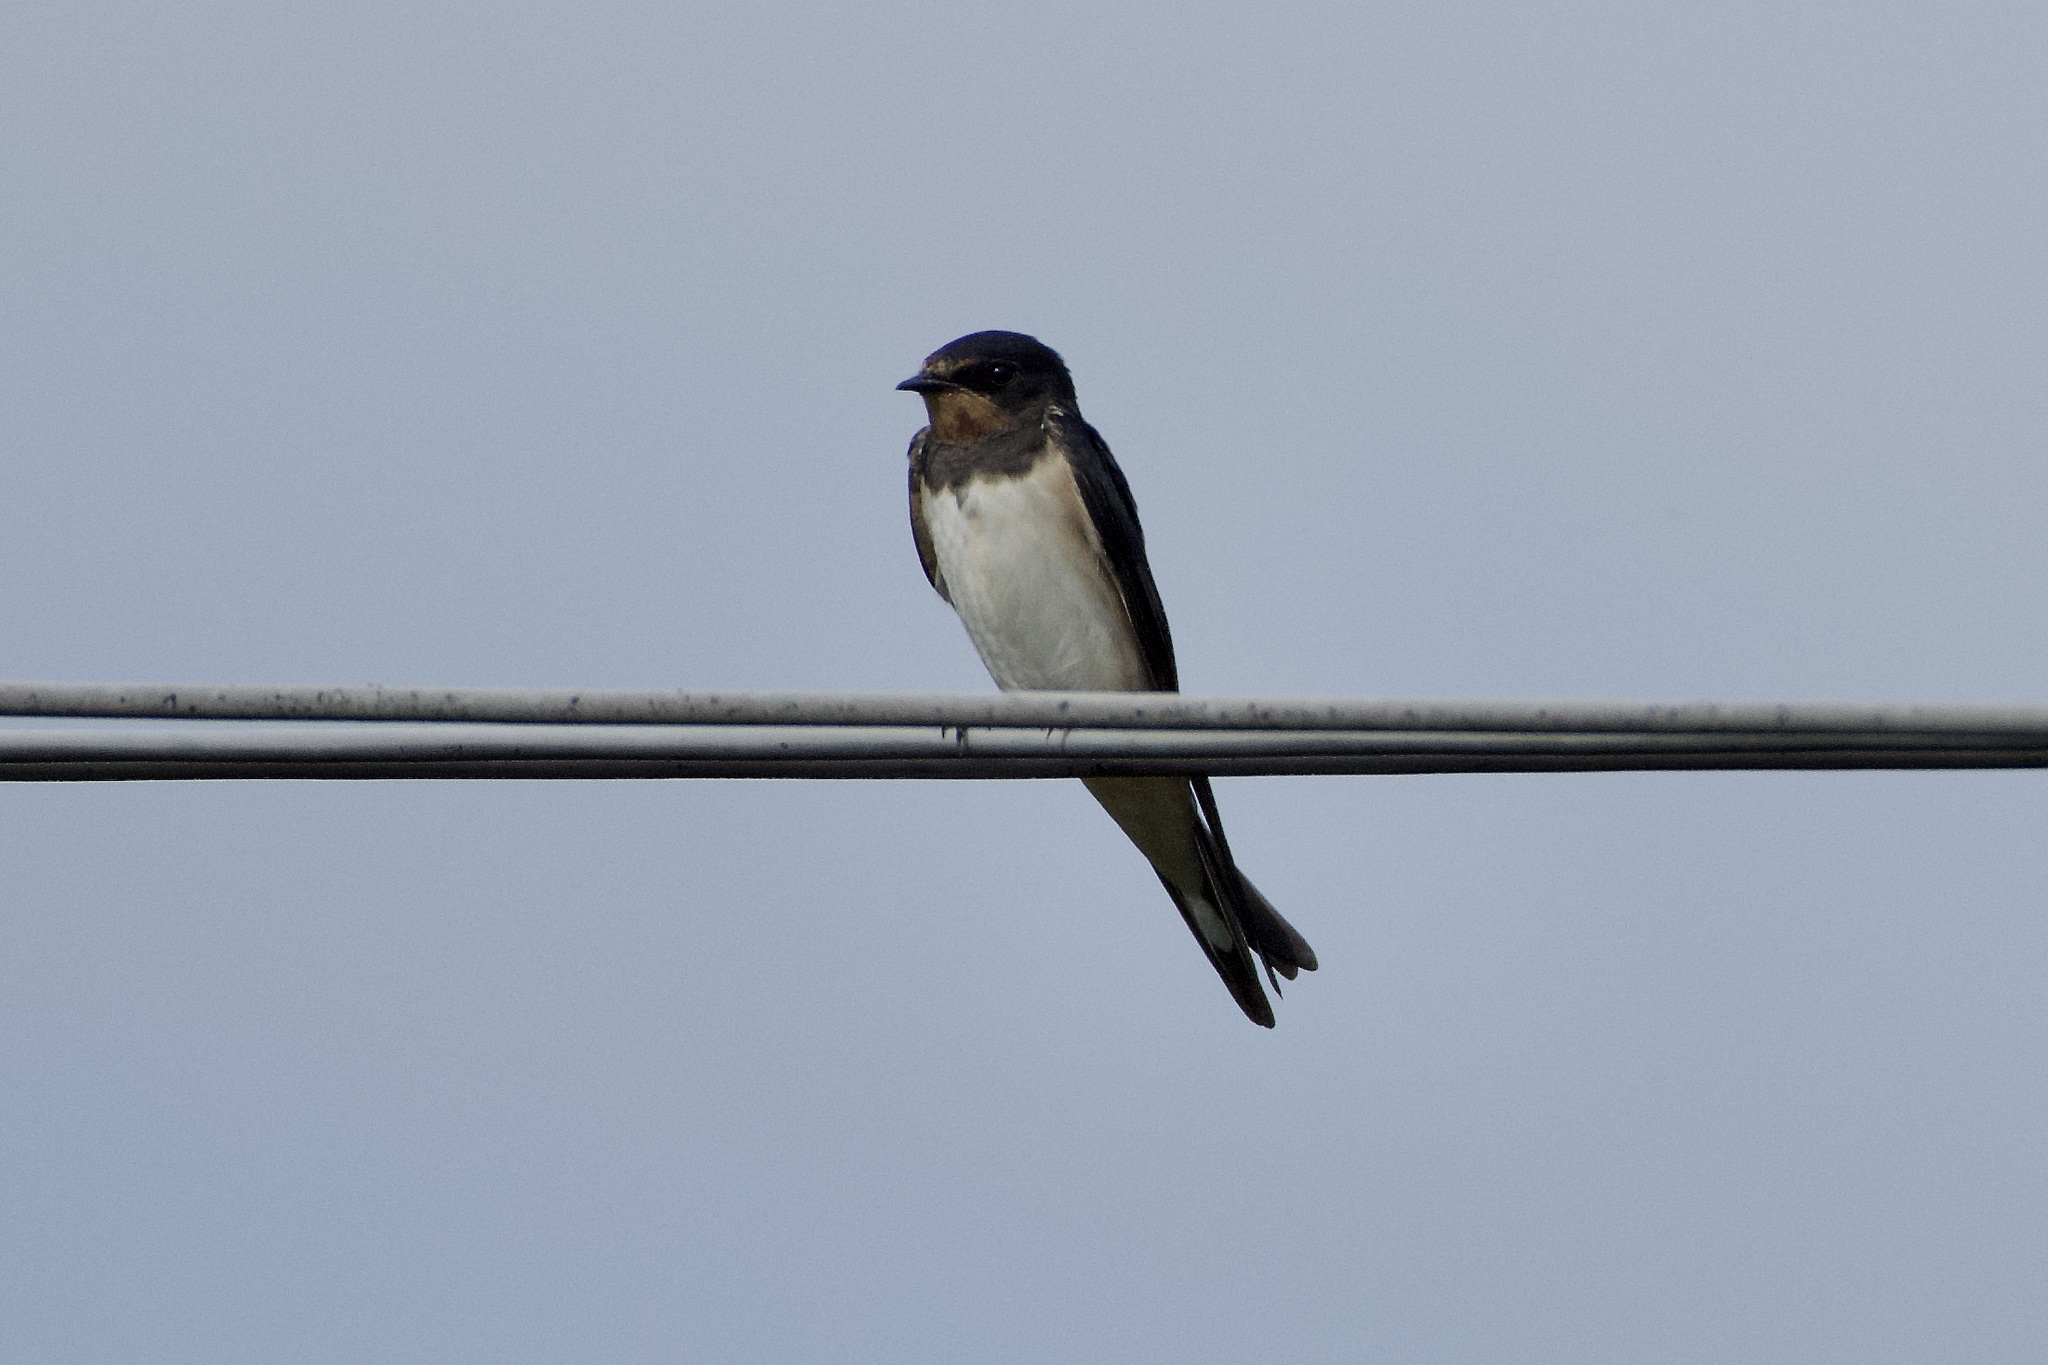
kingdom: Animalia
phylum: Chordata
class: Aves
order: Passeriformes
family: Hirundinidae
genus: Hirundo
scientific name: Hirundo rustica
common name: Barn swallow
